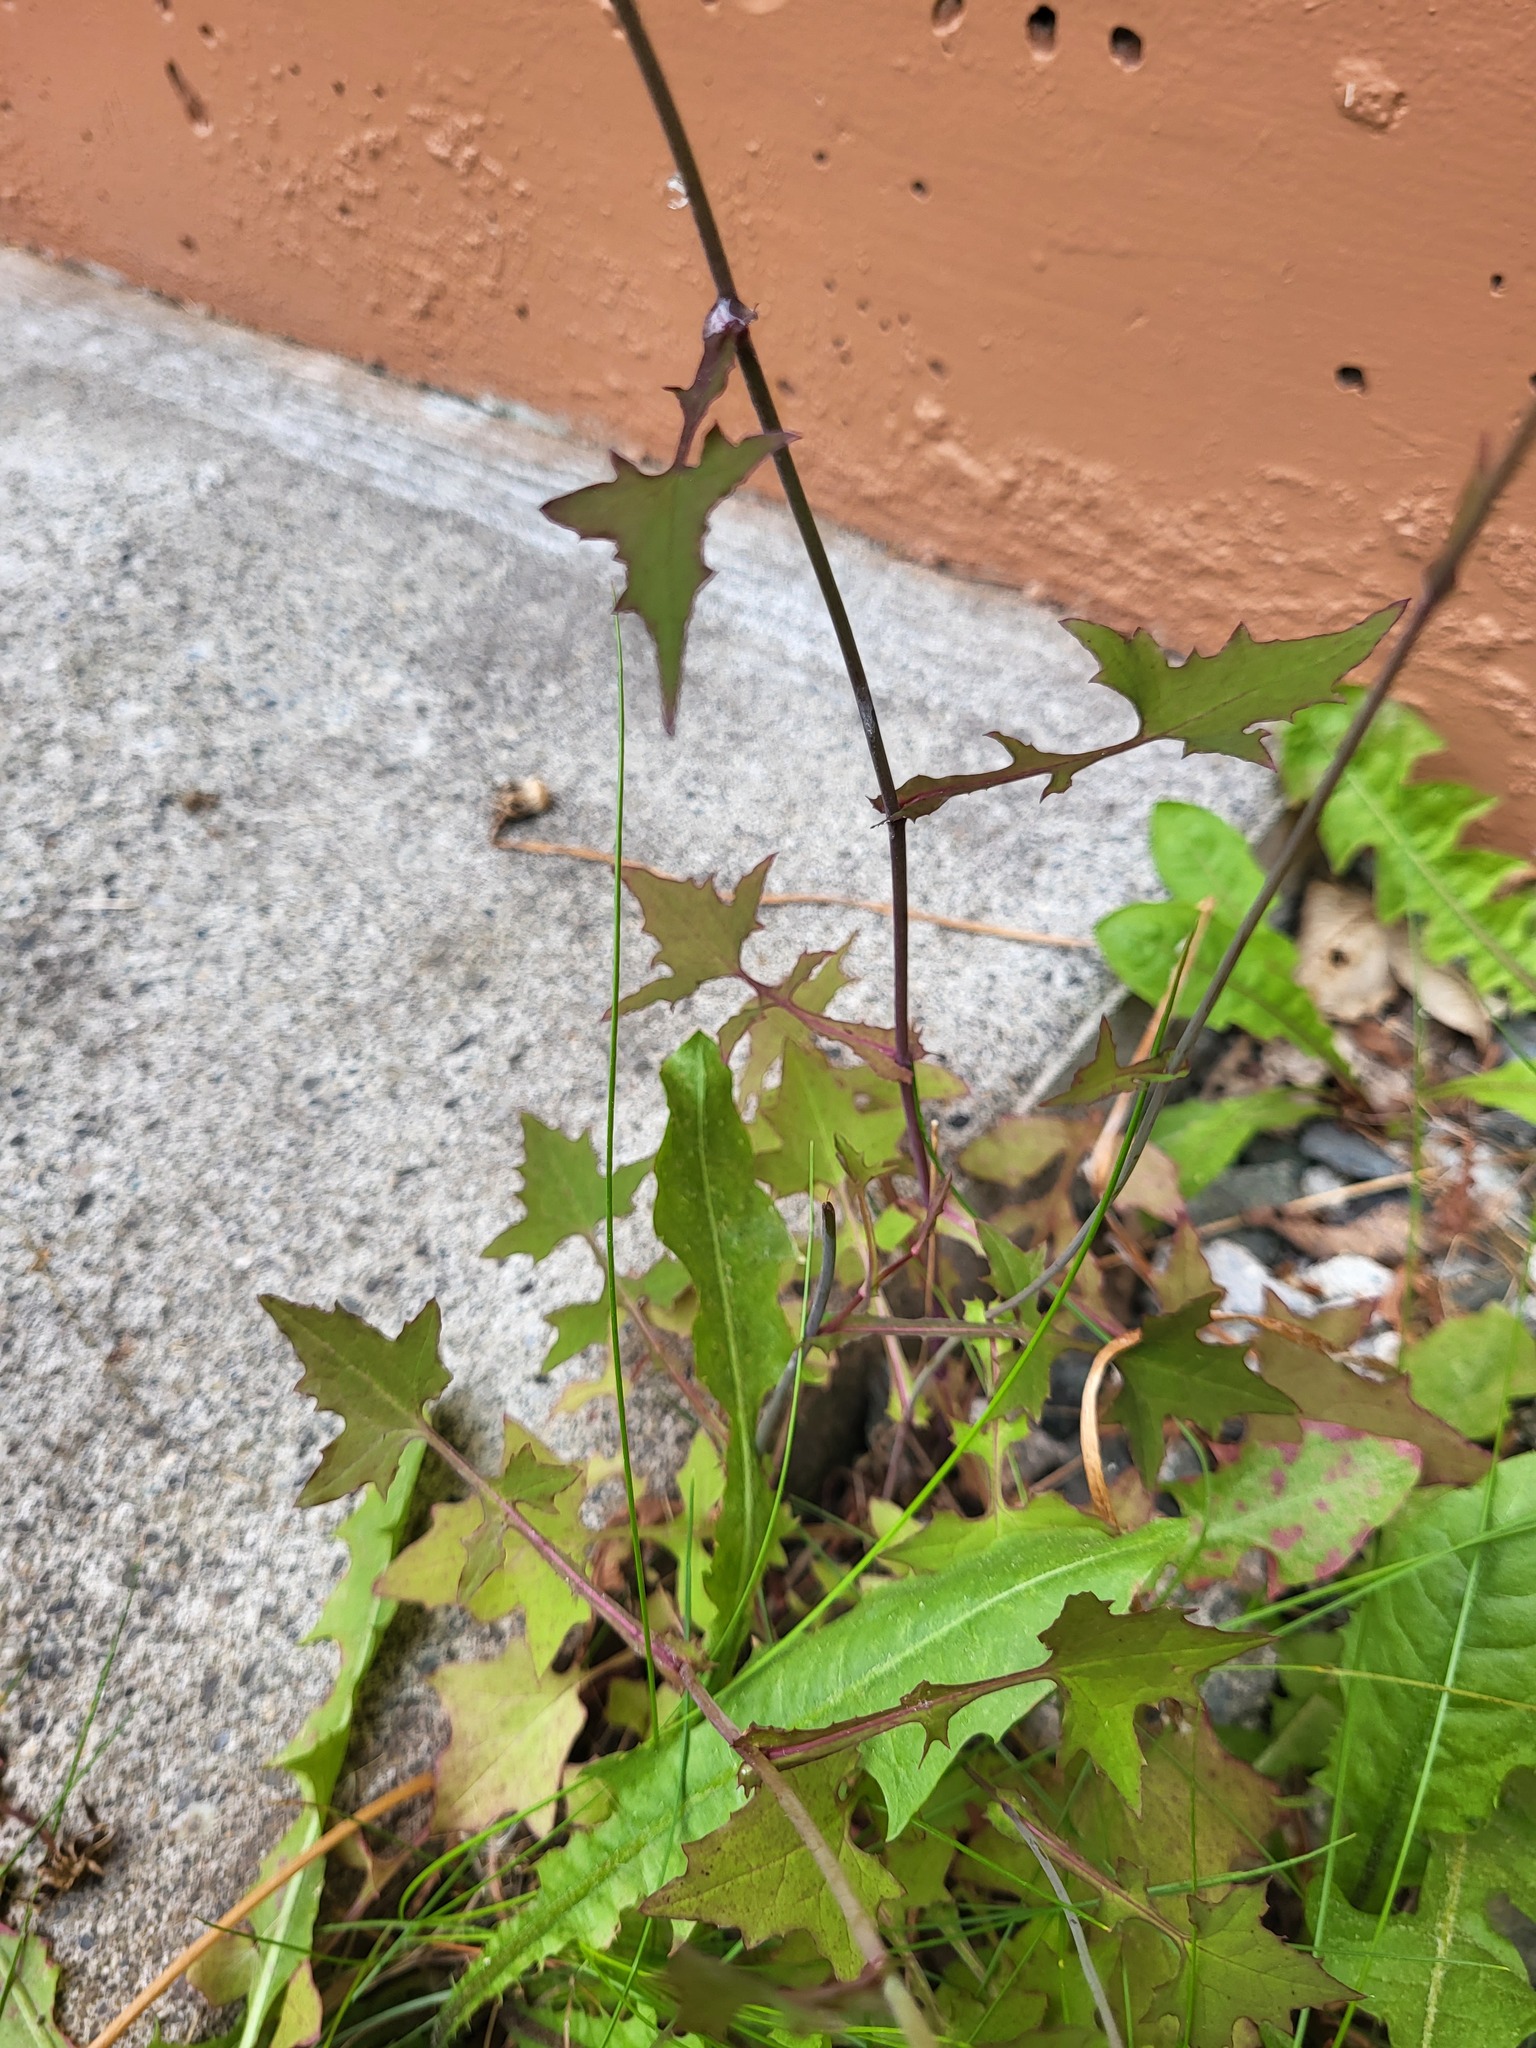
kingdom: Plantae
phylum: Tracheophyta
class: Magnoliopsida
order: Asterales
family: Asteraceae
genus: Mycelis
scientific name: Mycelis muralis
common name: Wall lettuce
